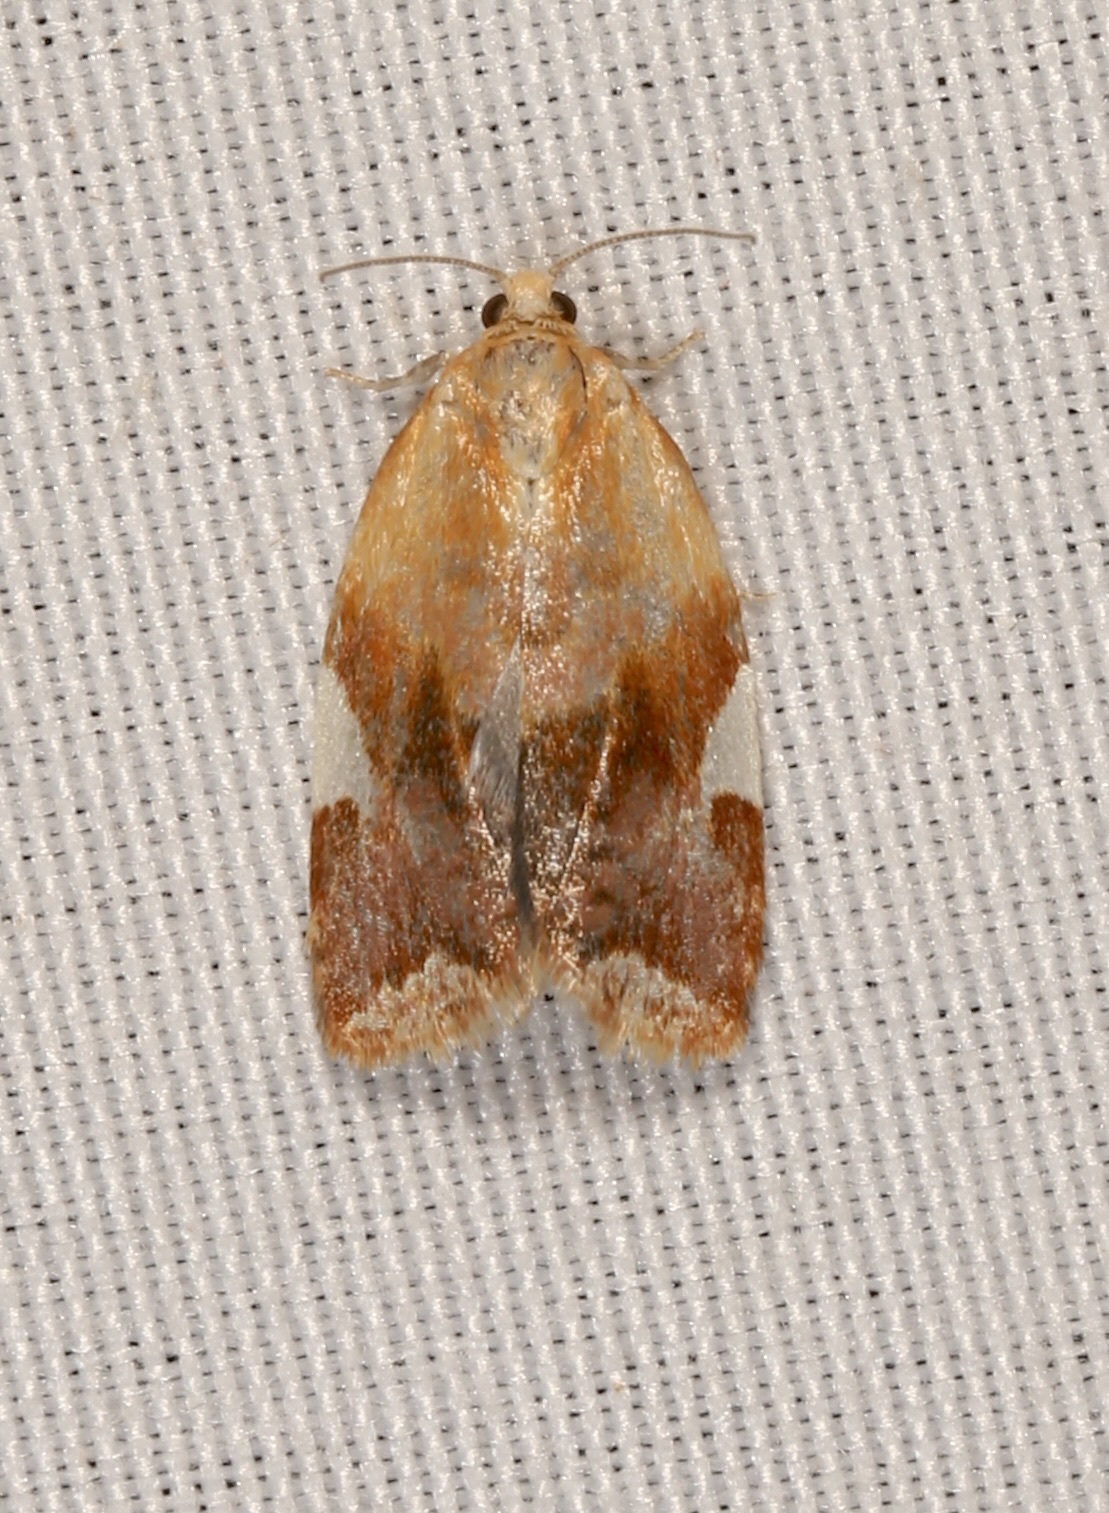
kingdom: Animalia
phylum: Arthropoda
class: Insecta
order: Lepidoptera
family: Tortricidae
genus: Clepsis
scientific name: Clepsis persicana
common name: White triangle tortrix
